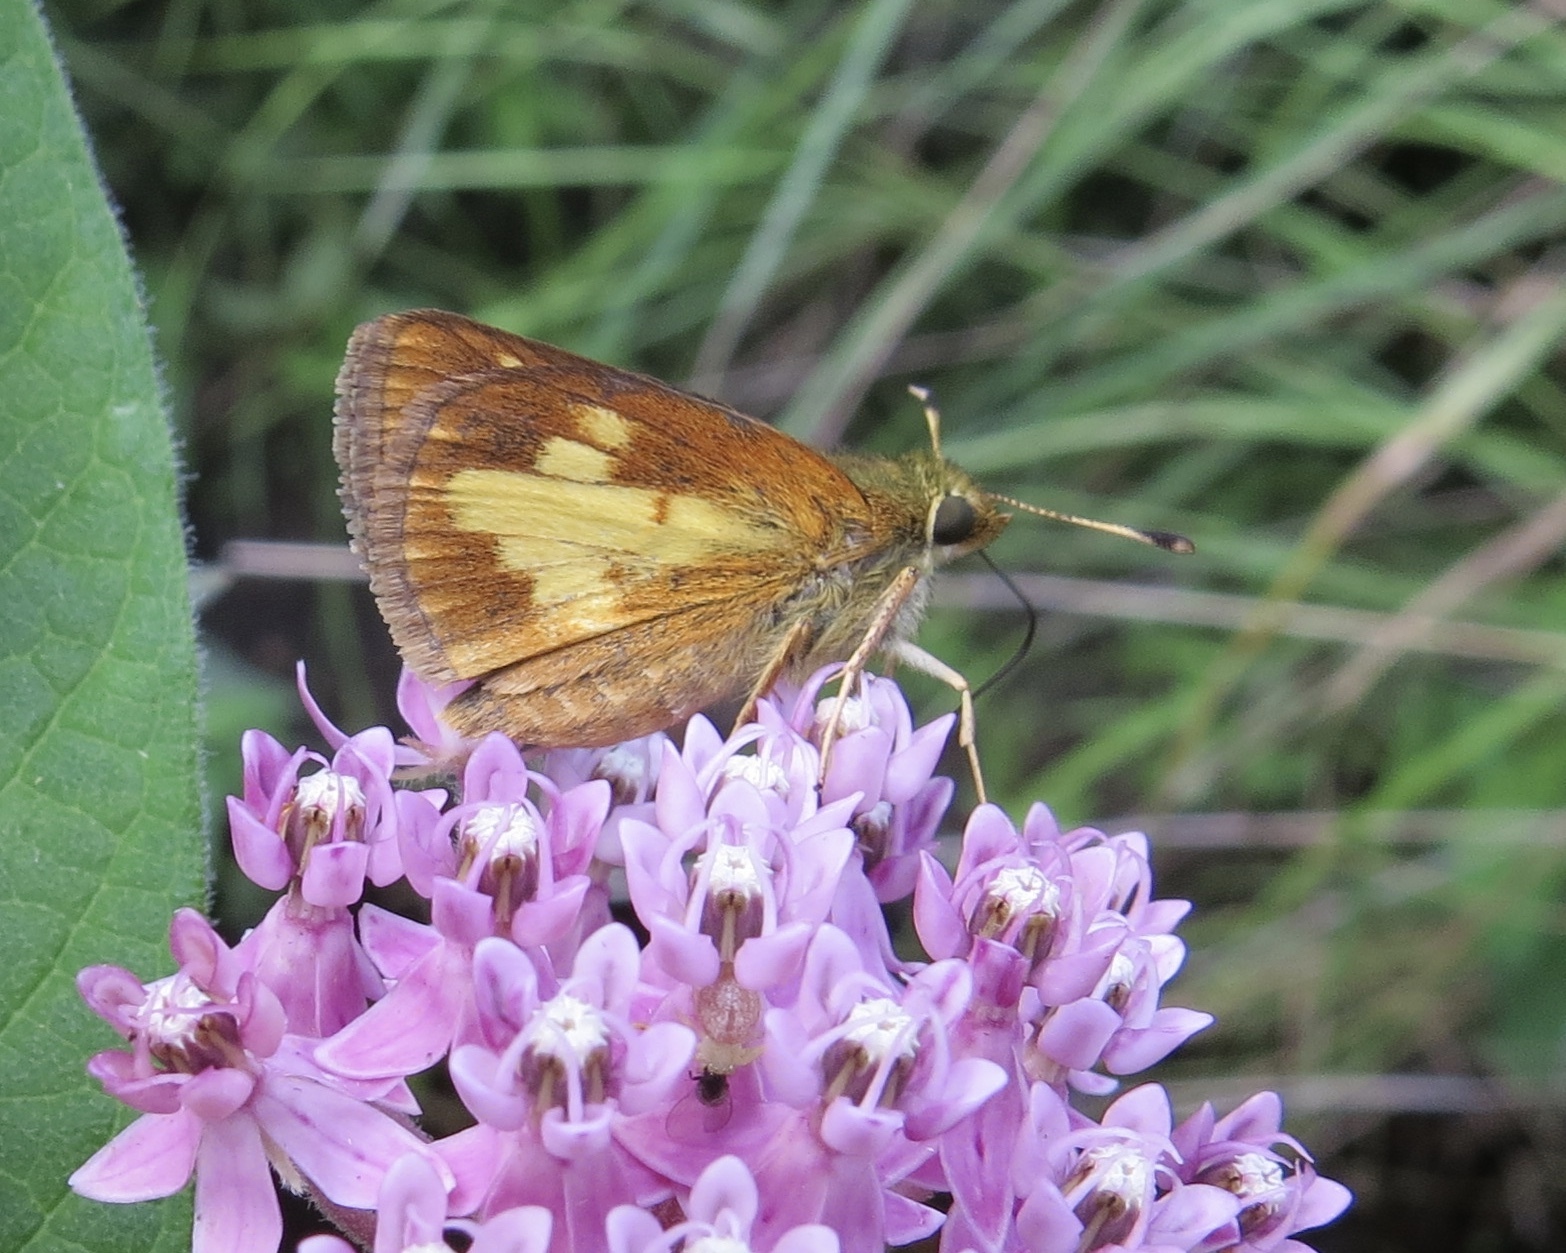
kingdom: Animalia
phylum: Arthropoda
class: Insecta
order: Lepidoptera
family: Hesperiidae
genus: Poanes
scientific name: Poanes massasoit
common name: Mulberrywing
